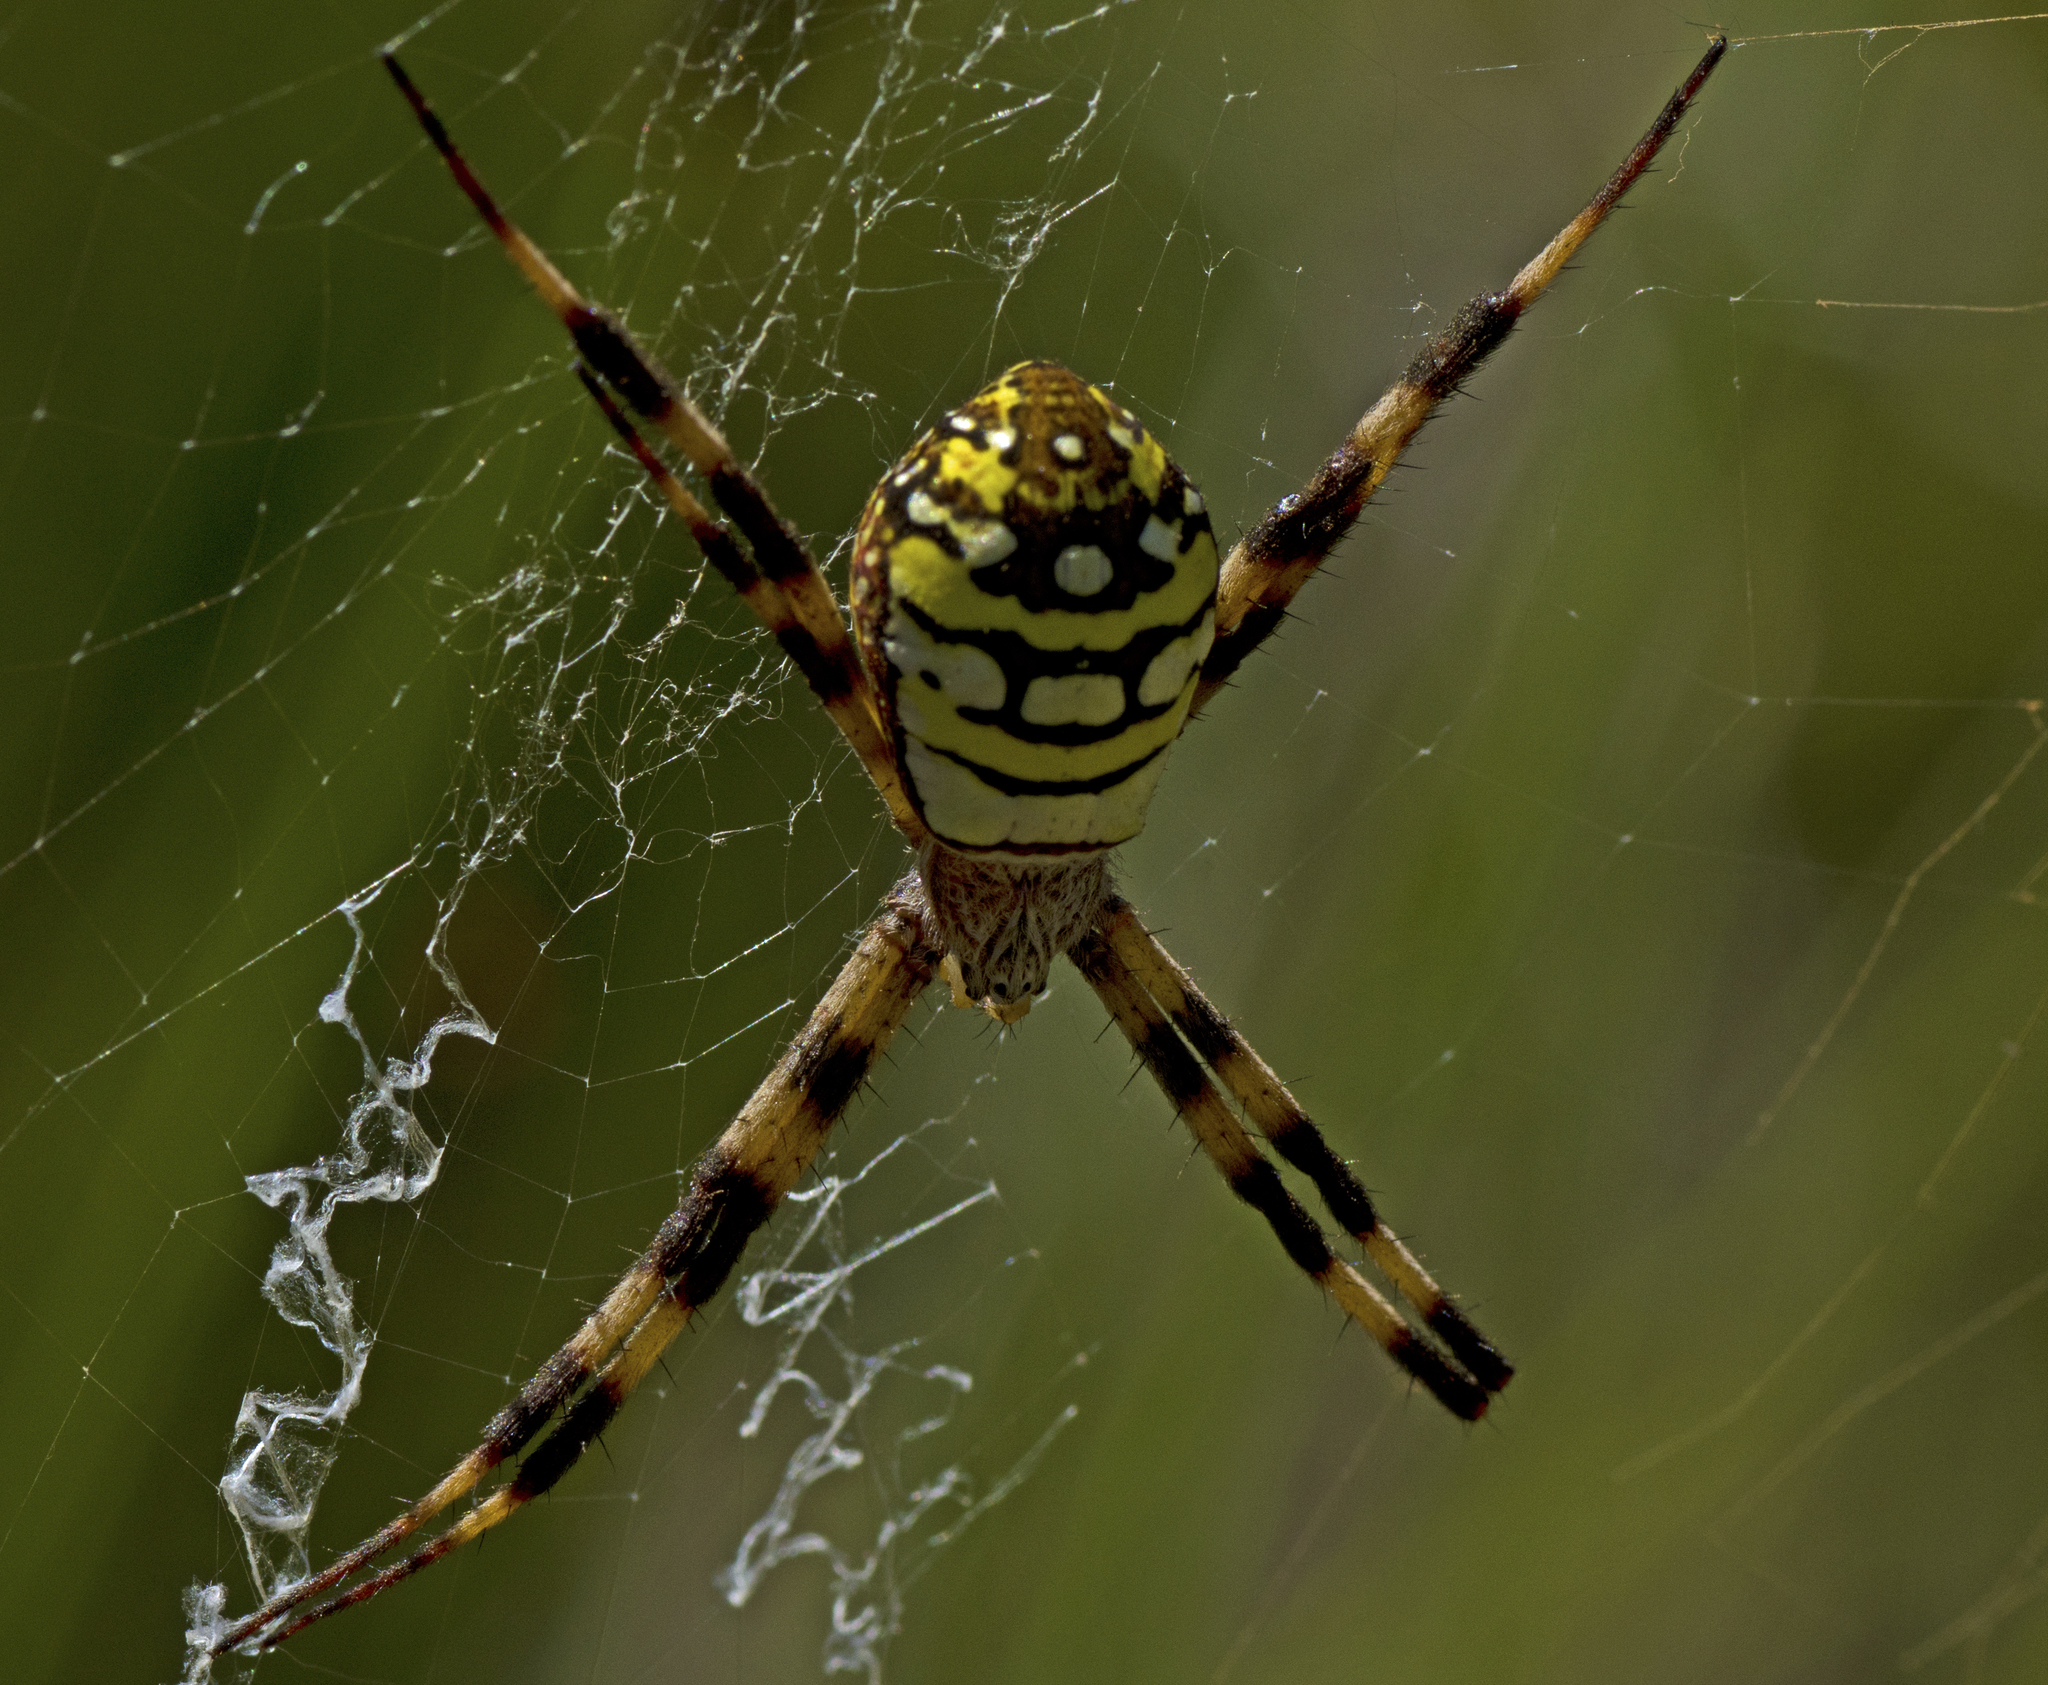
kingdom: Animalia
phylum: Arthropoda
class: Arachnida
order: Araneae
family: Araneidae
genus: Argiope
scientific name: Argiope picta
